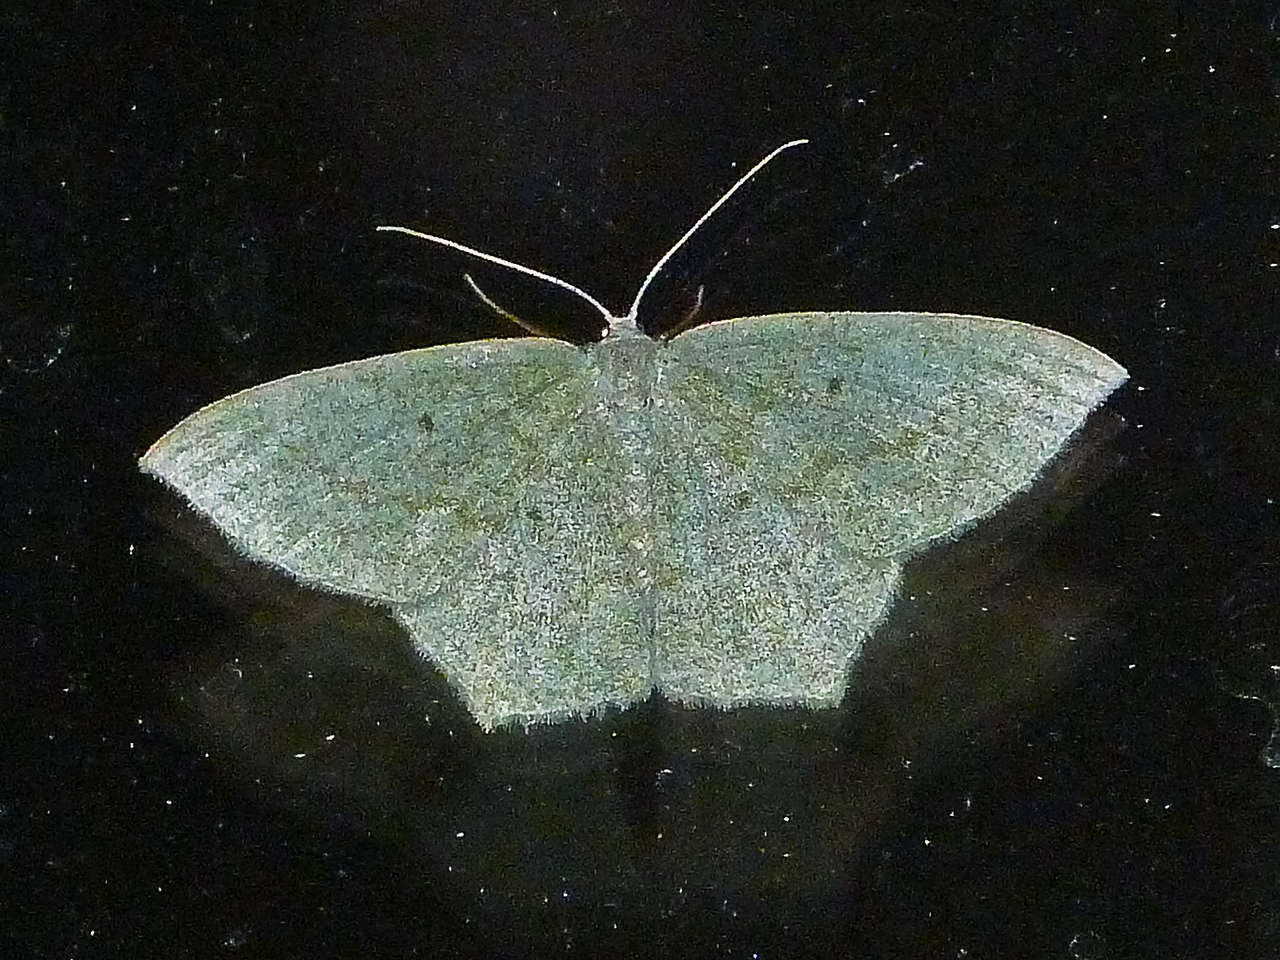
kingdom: Animalia
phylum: Arthropoda
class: Insecta
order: Lepidoptera
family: Geometridae
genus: Maxates
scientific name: Maxates centrophylla
